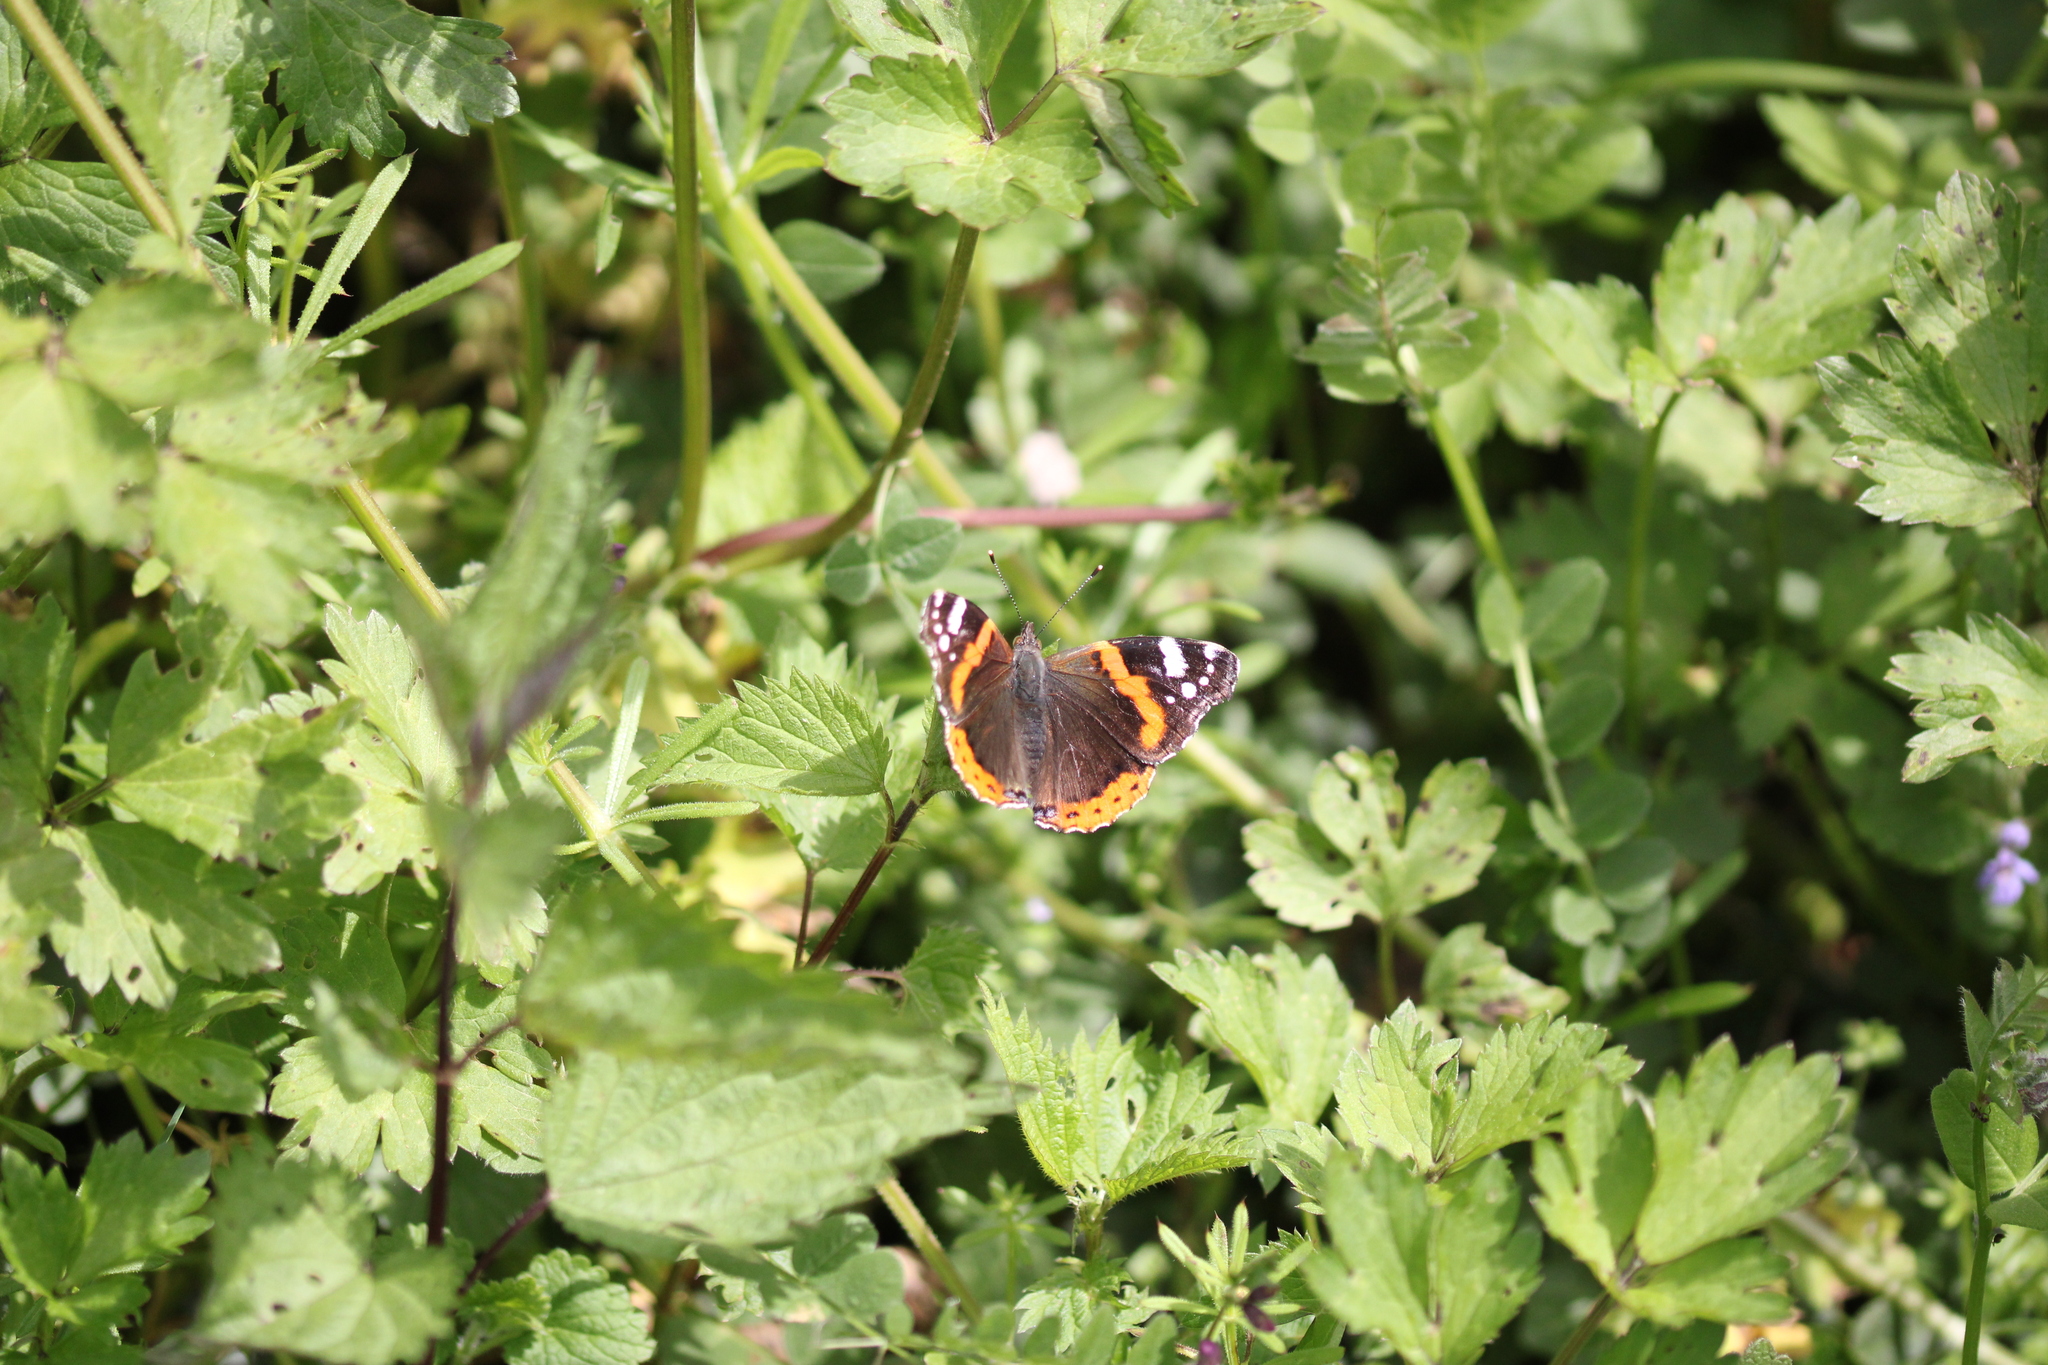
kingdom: Animalia
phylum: Arthropoda
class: Insecta
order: Lepidoptera
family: Nymphalidae
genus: Vanessa
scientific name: Vanessa atalanta
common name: Red admiral
